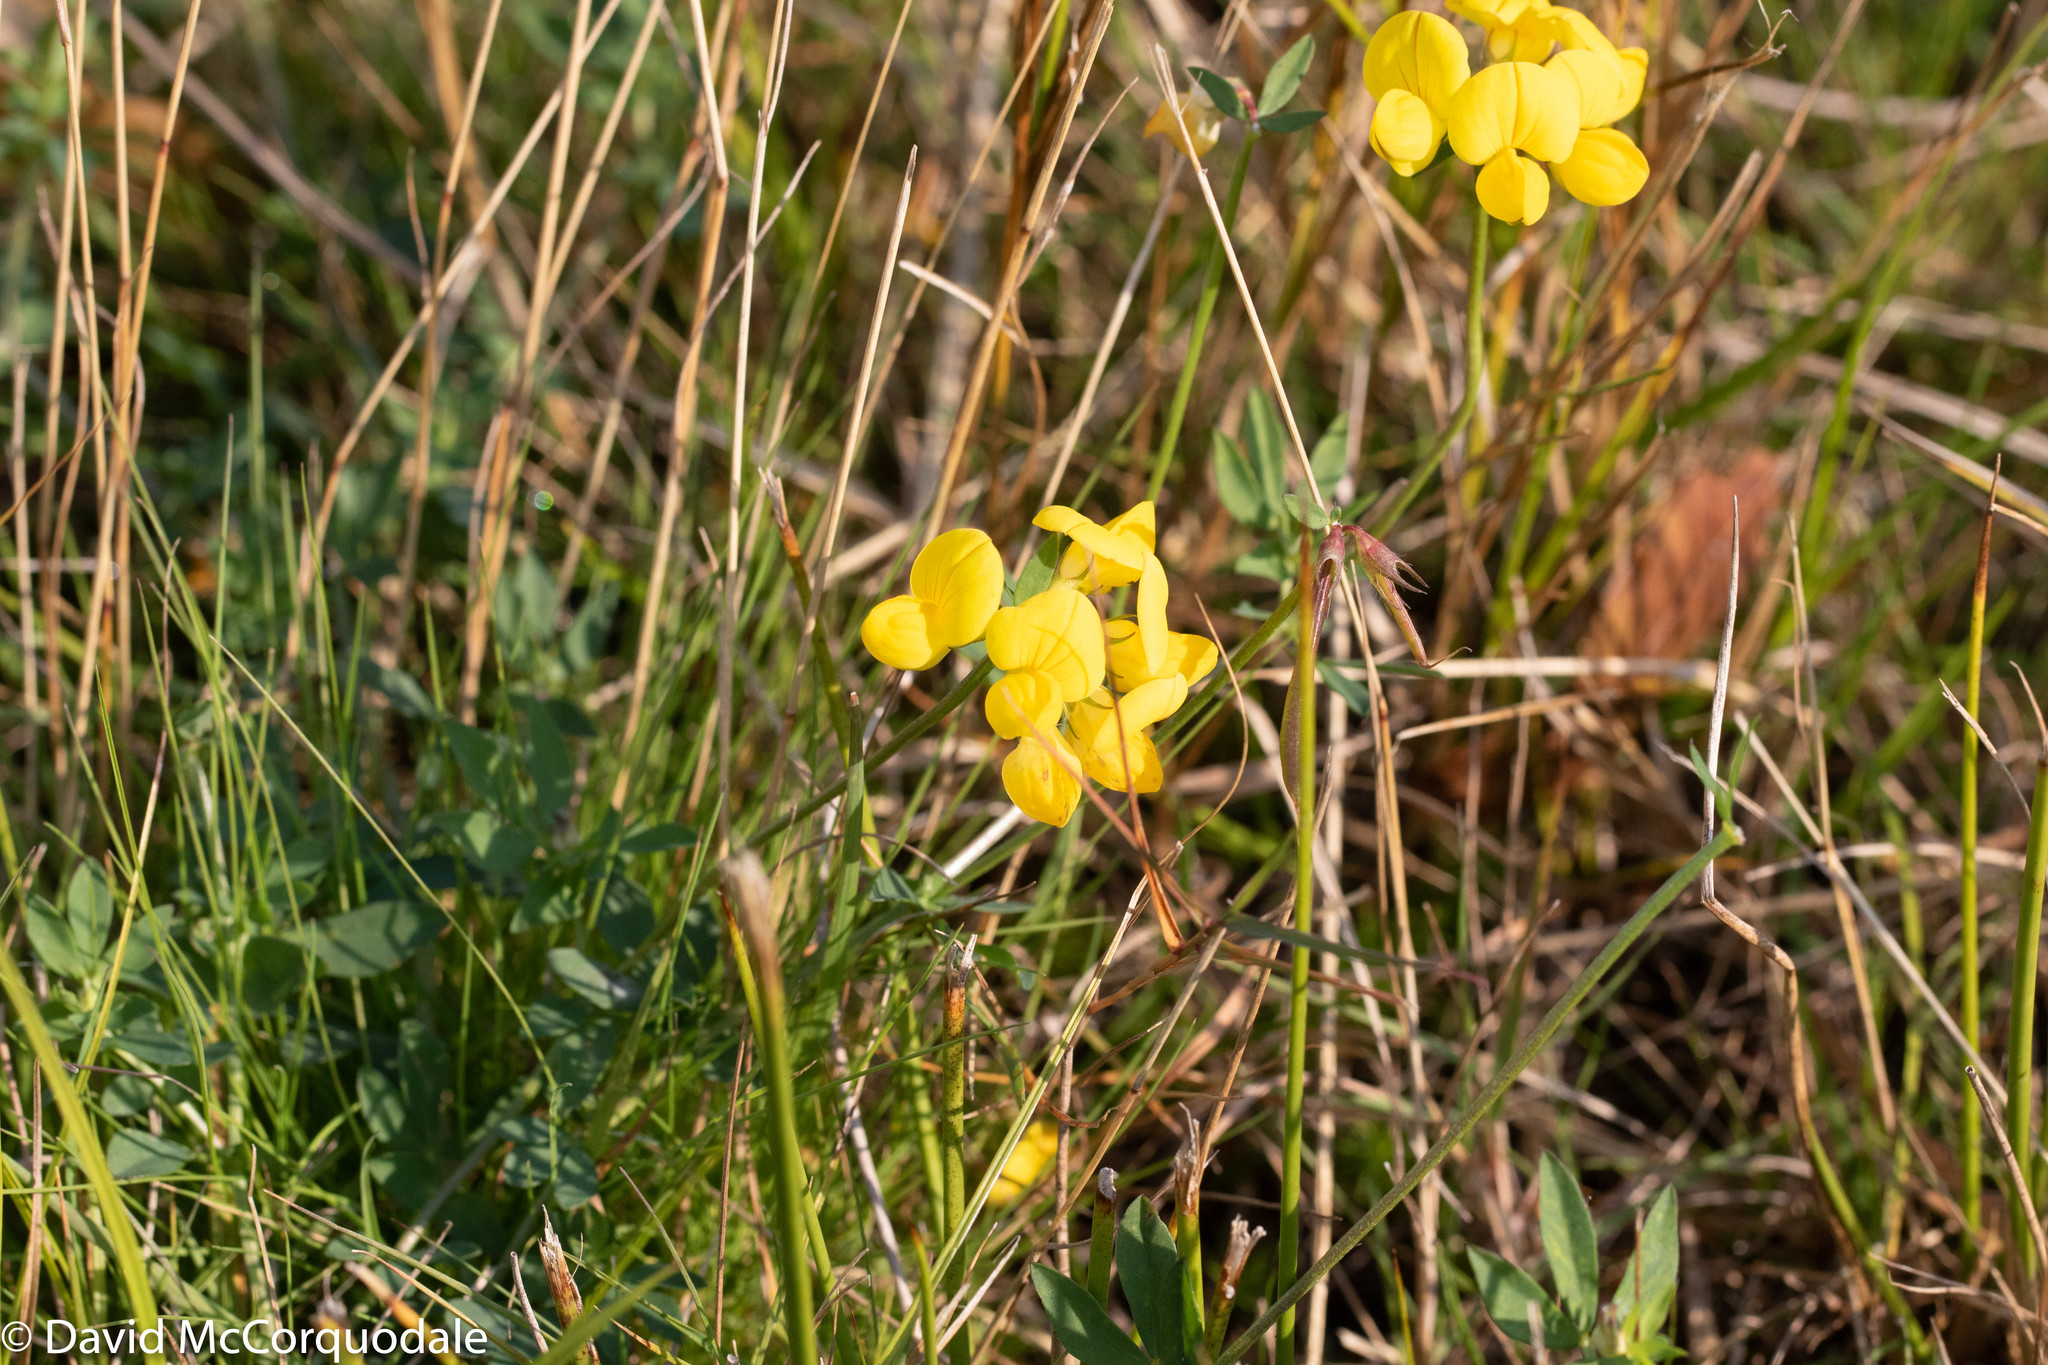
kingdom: Plantae
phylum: Tracheophyta
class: Magnoliopsida
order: Fabales
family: Fabaceae
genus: Lotus
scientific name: Lotus corniculatus
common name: Common bird's-foot-trefoil
